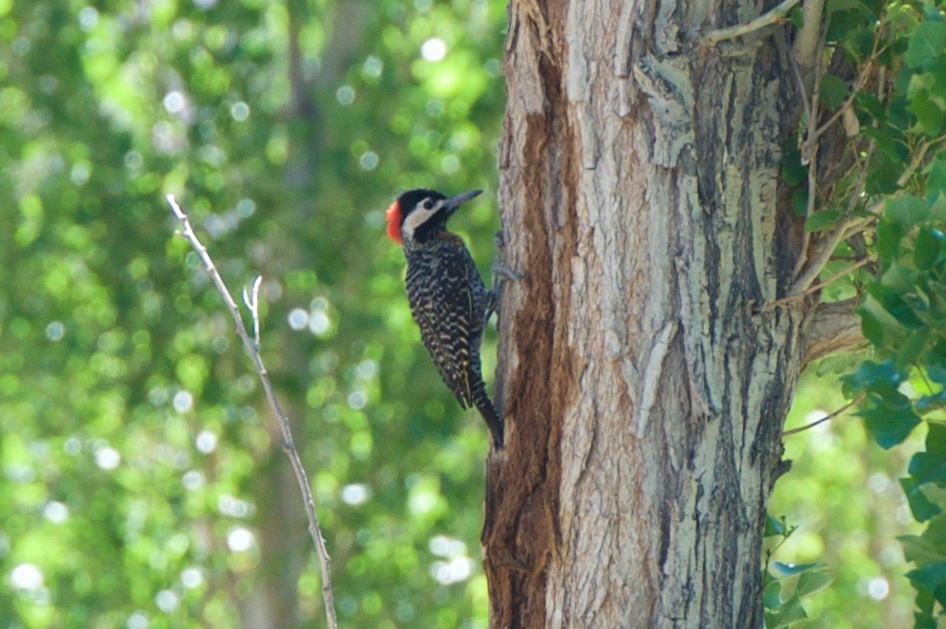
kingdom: Animalia
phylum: Chordata
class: Aves
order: Piciformes
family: Picidae
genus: Colaptes
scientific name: Colaptes melanochloros
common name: Green-barred woodpecker
